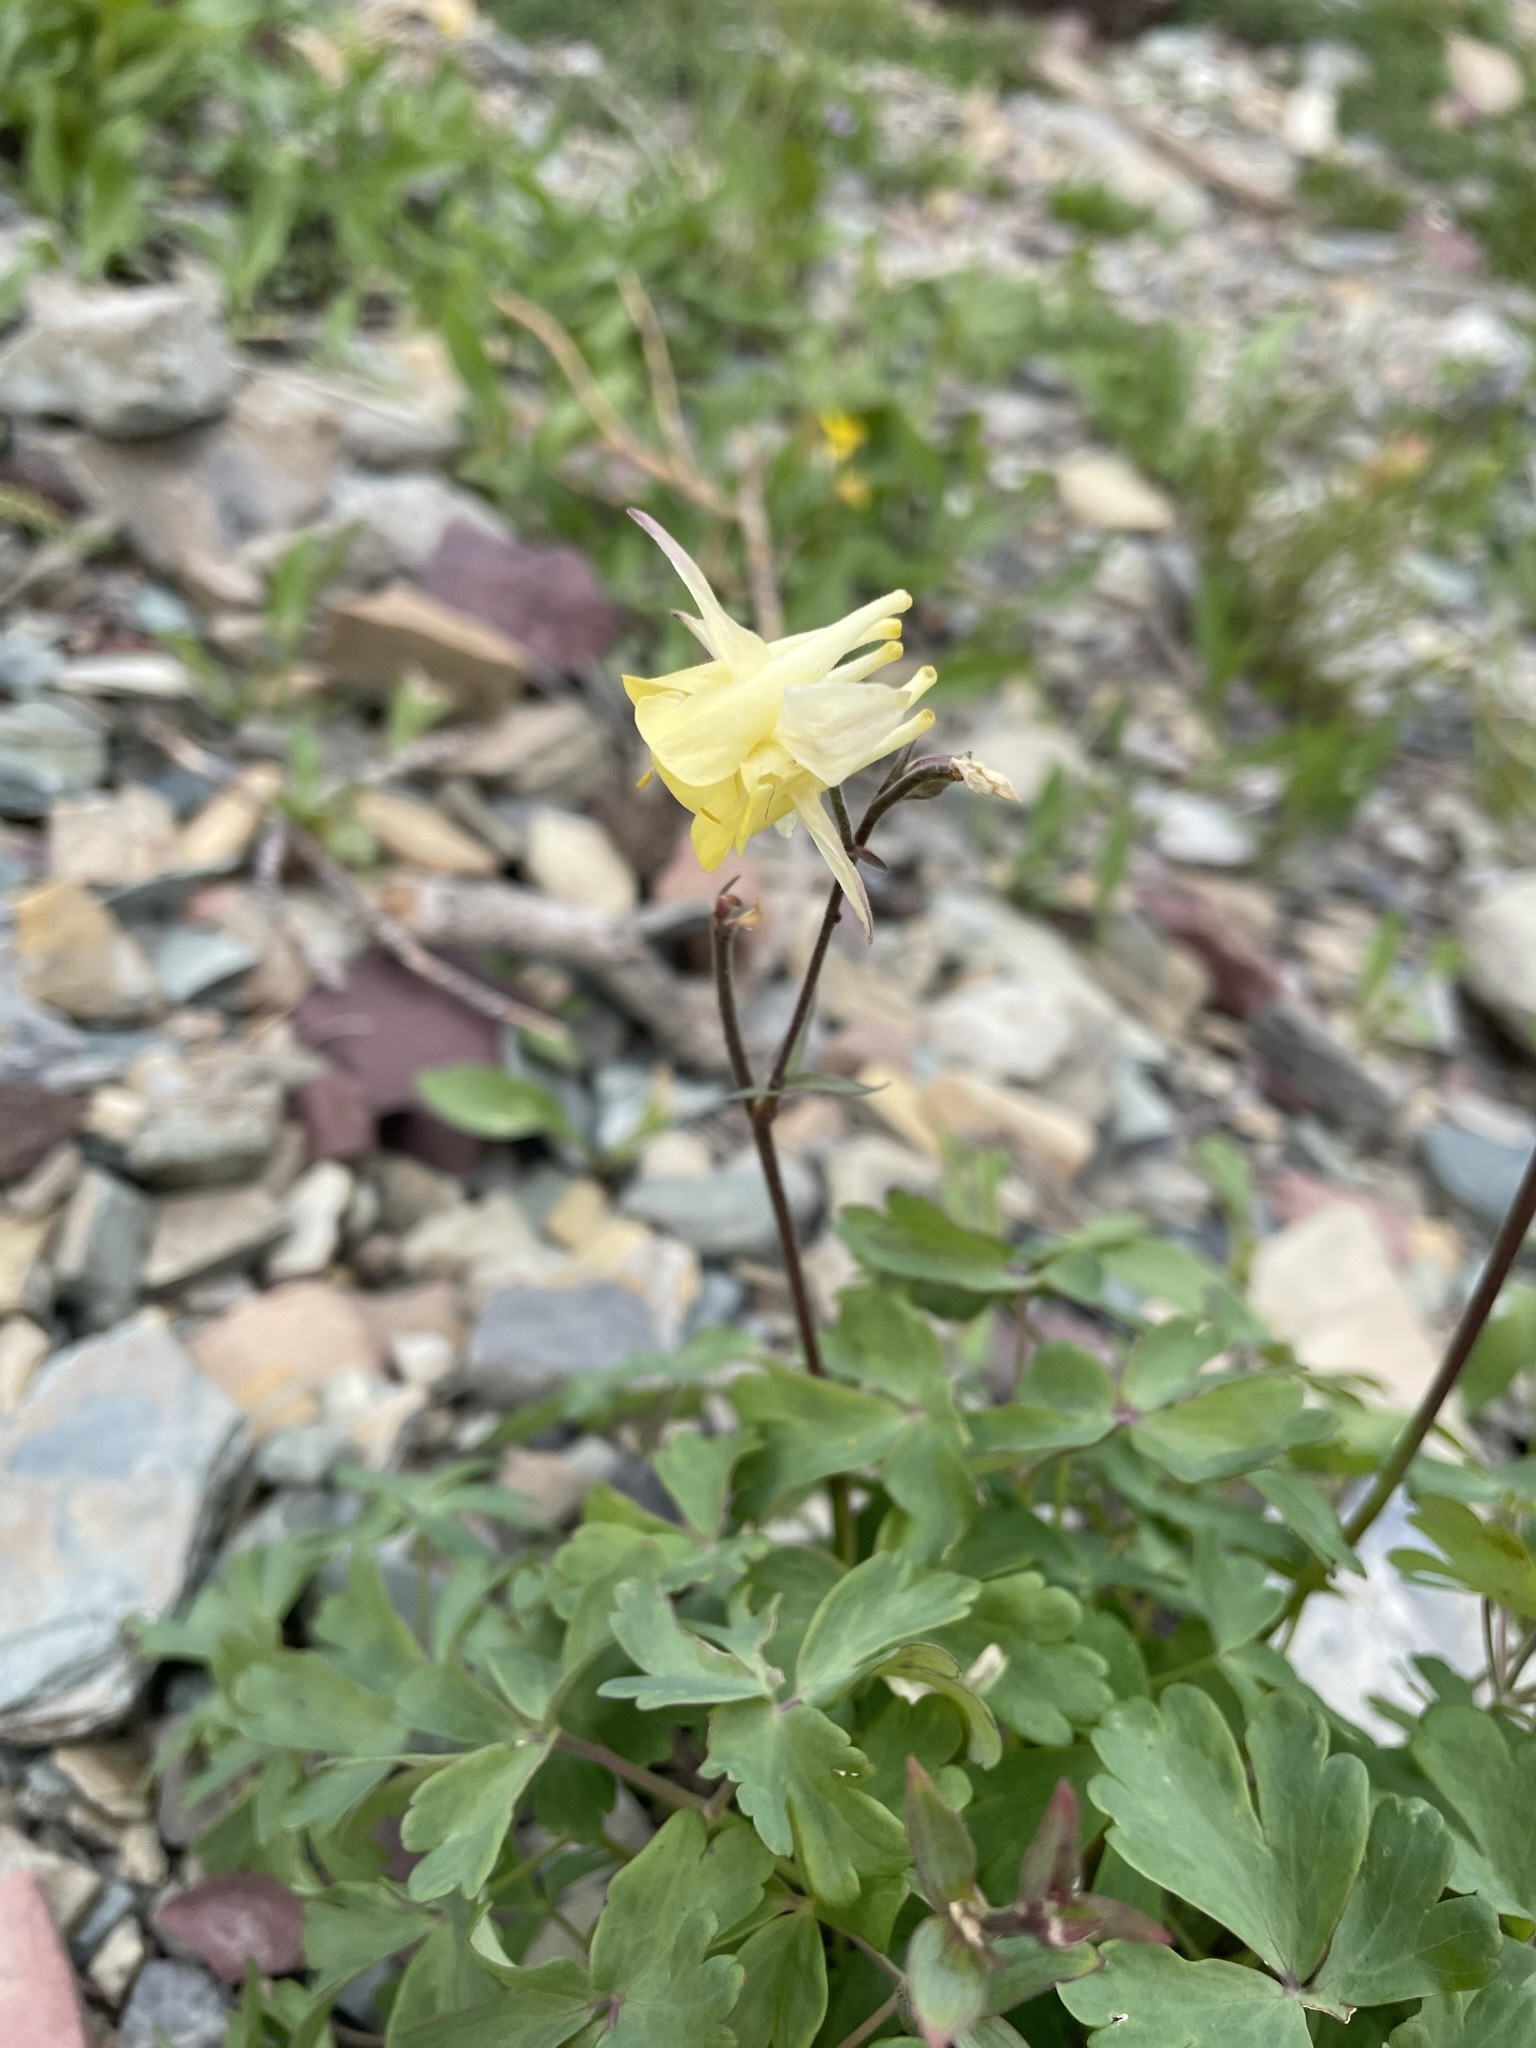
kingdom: Plantae
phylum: Tracheophyta
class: Magnoliopsida
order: Ranunculales
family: Ranunculaceae
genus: Aquilegia
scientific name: Aquilegia flavescens
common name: Yellow columbine
